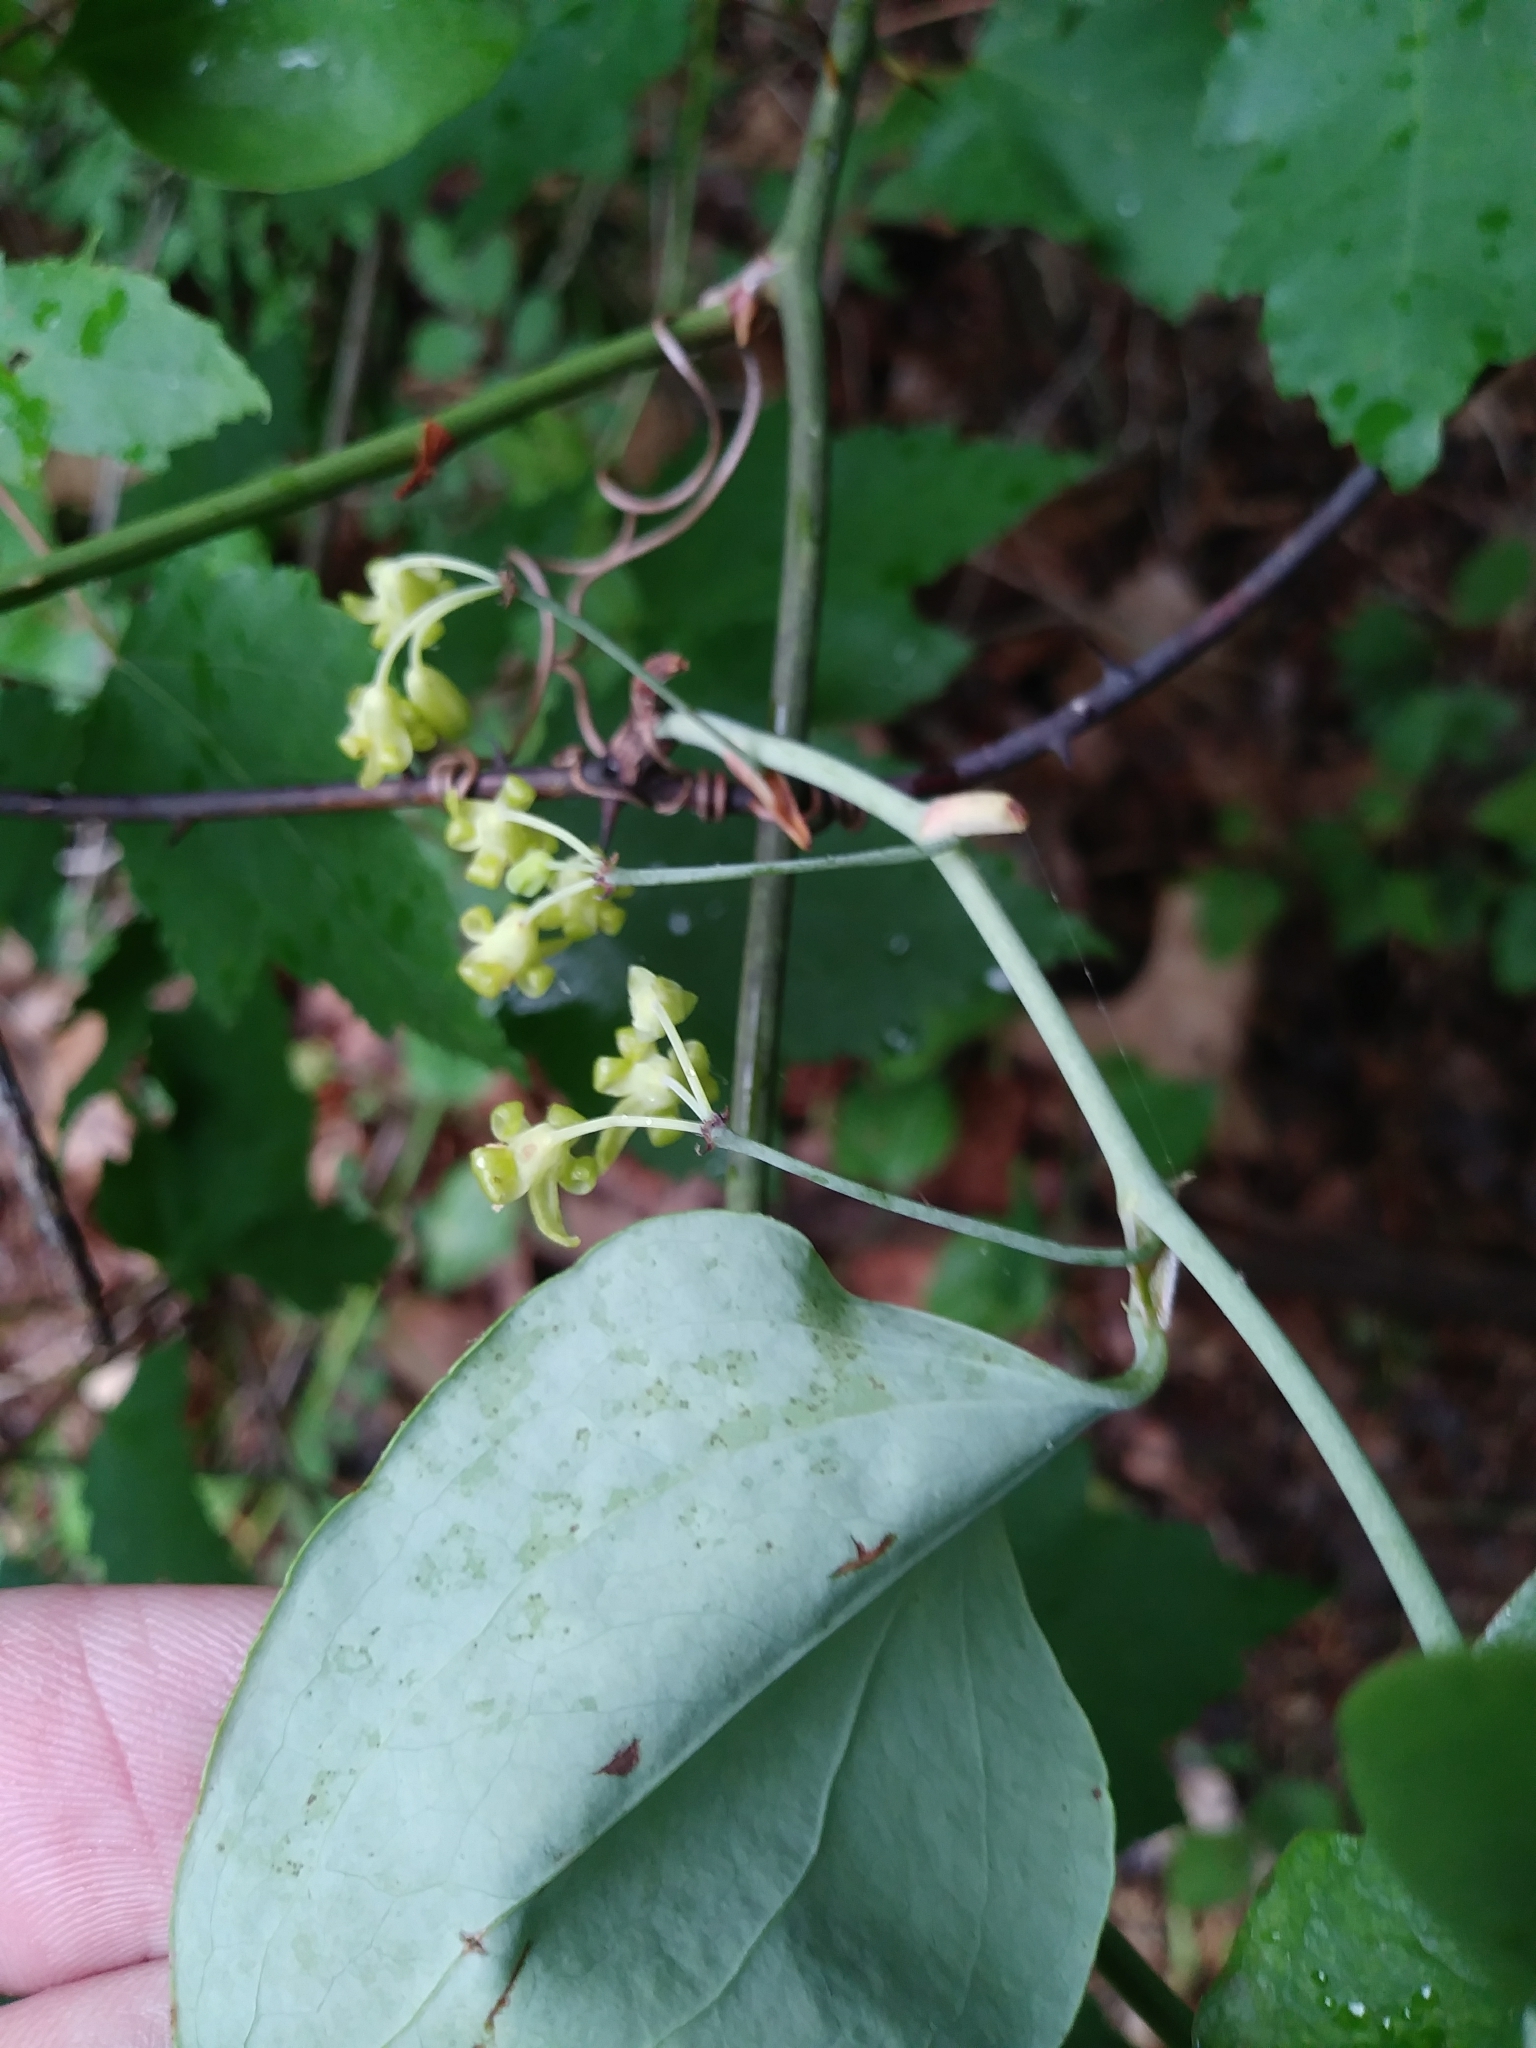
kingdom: Plantae
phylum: Tracheophyta
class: Liliopsida
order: Liliales
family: Smilacaceae
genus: Smilax
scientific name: Smilax glauca
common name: Cat greenbrier
